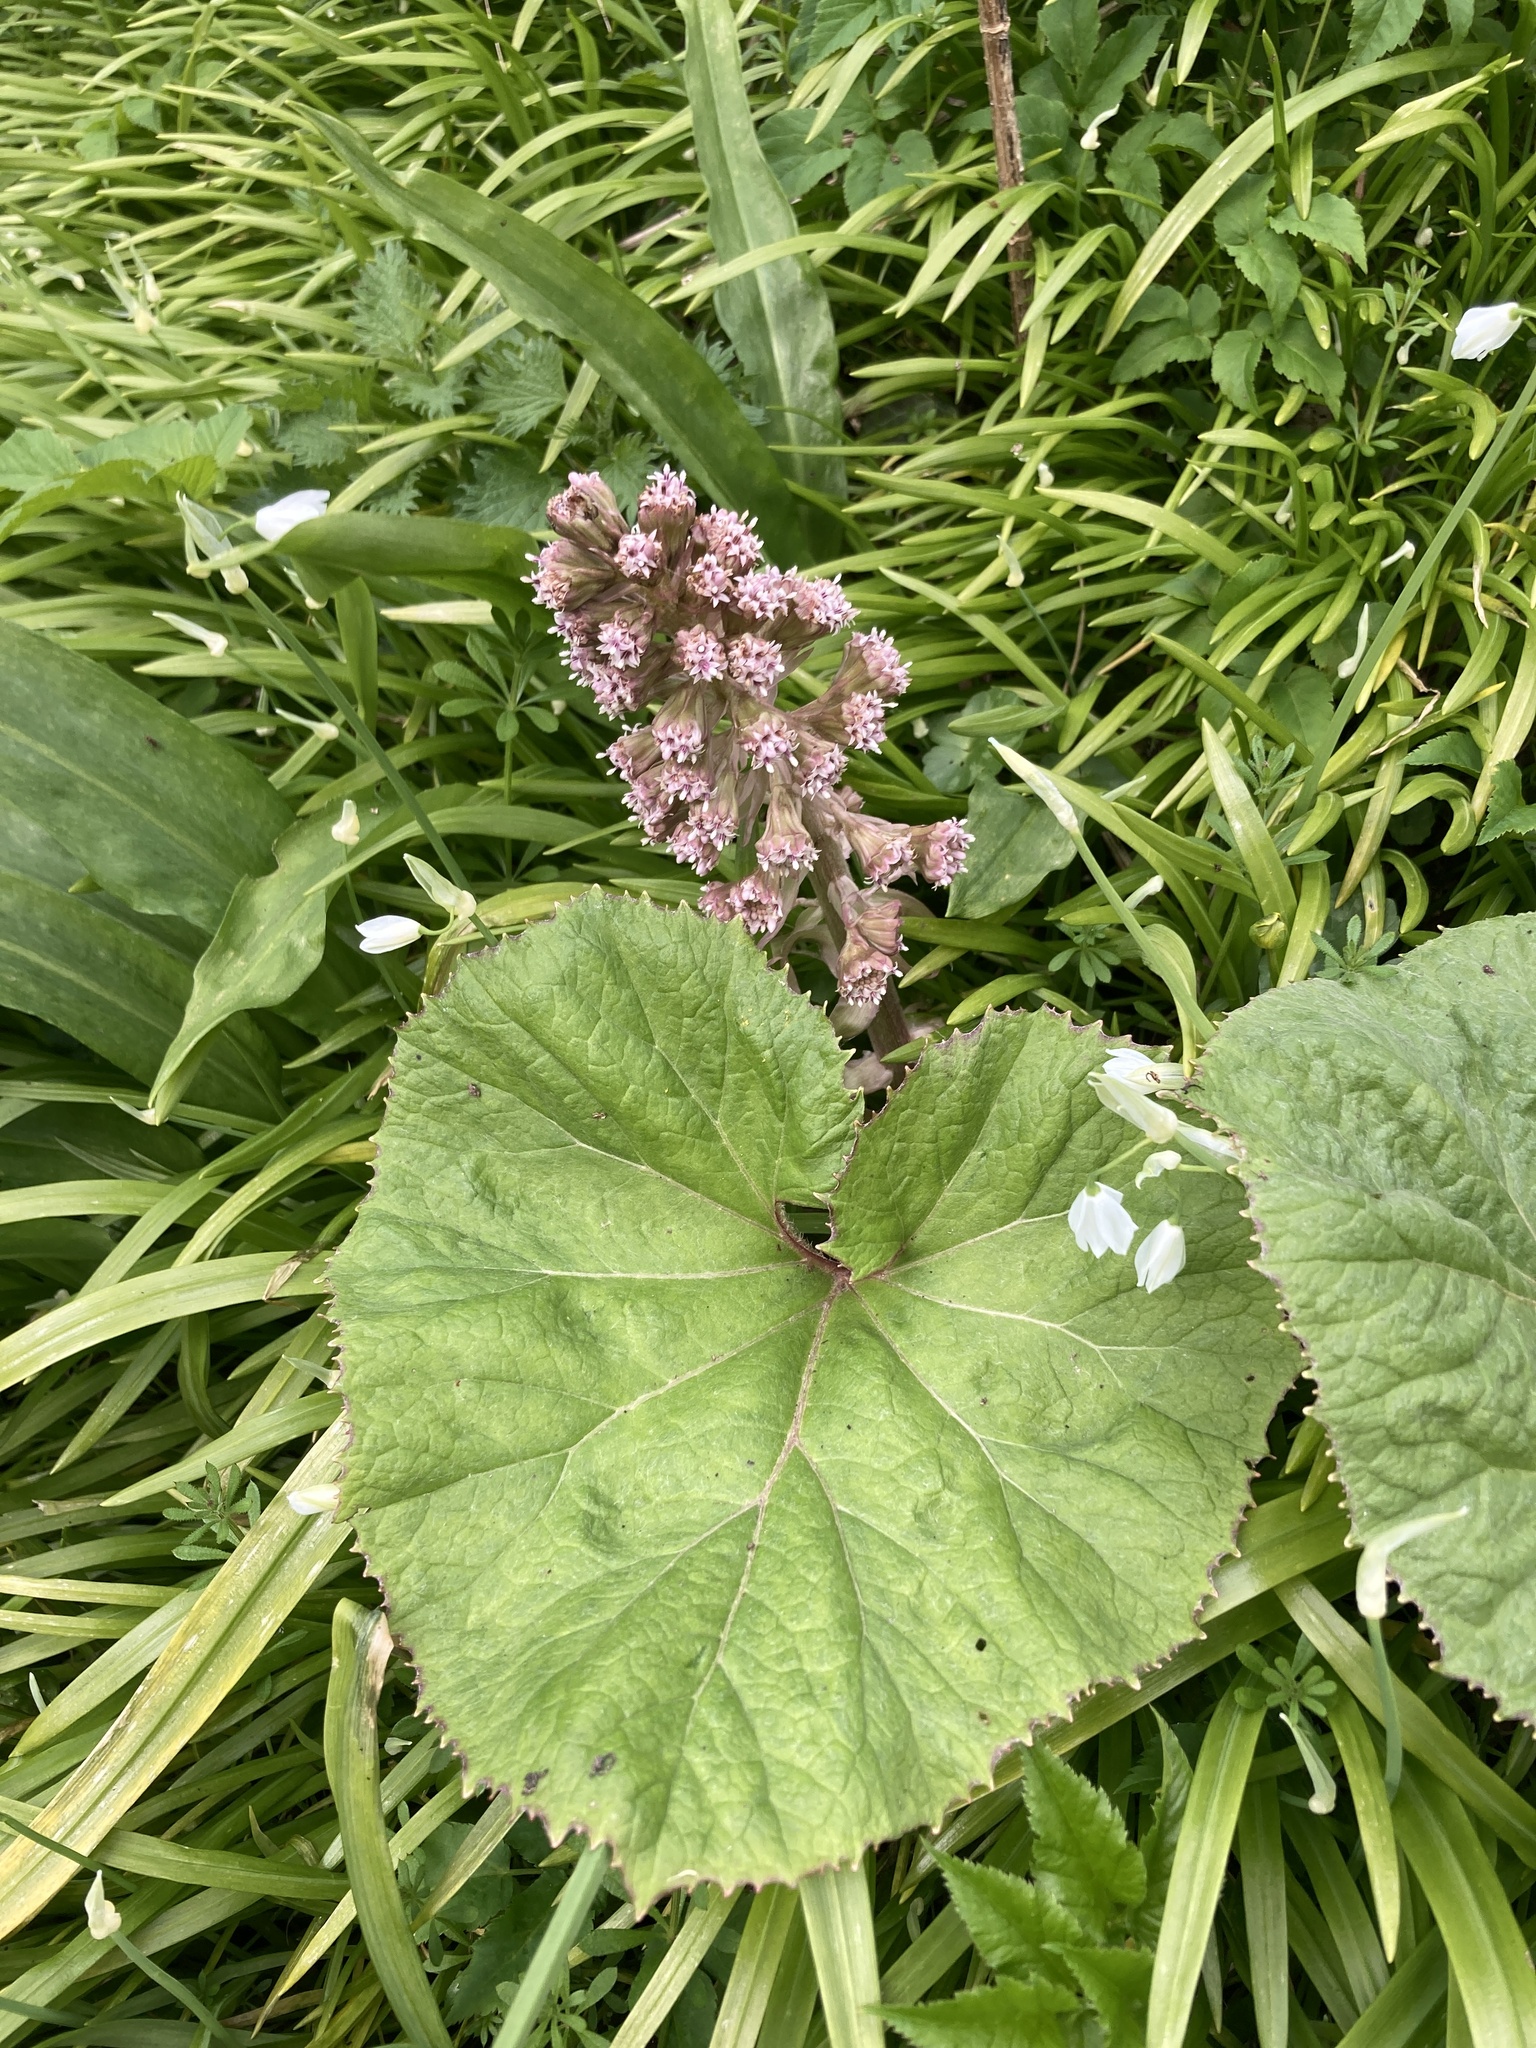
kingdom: Plantae
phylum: Tracheophyta
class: Magnoliopsida
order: Asterales
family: Asteraceae
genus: Petasites
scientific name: Petasites hybridus
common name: Butterbur
